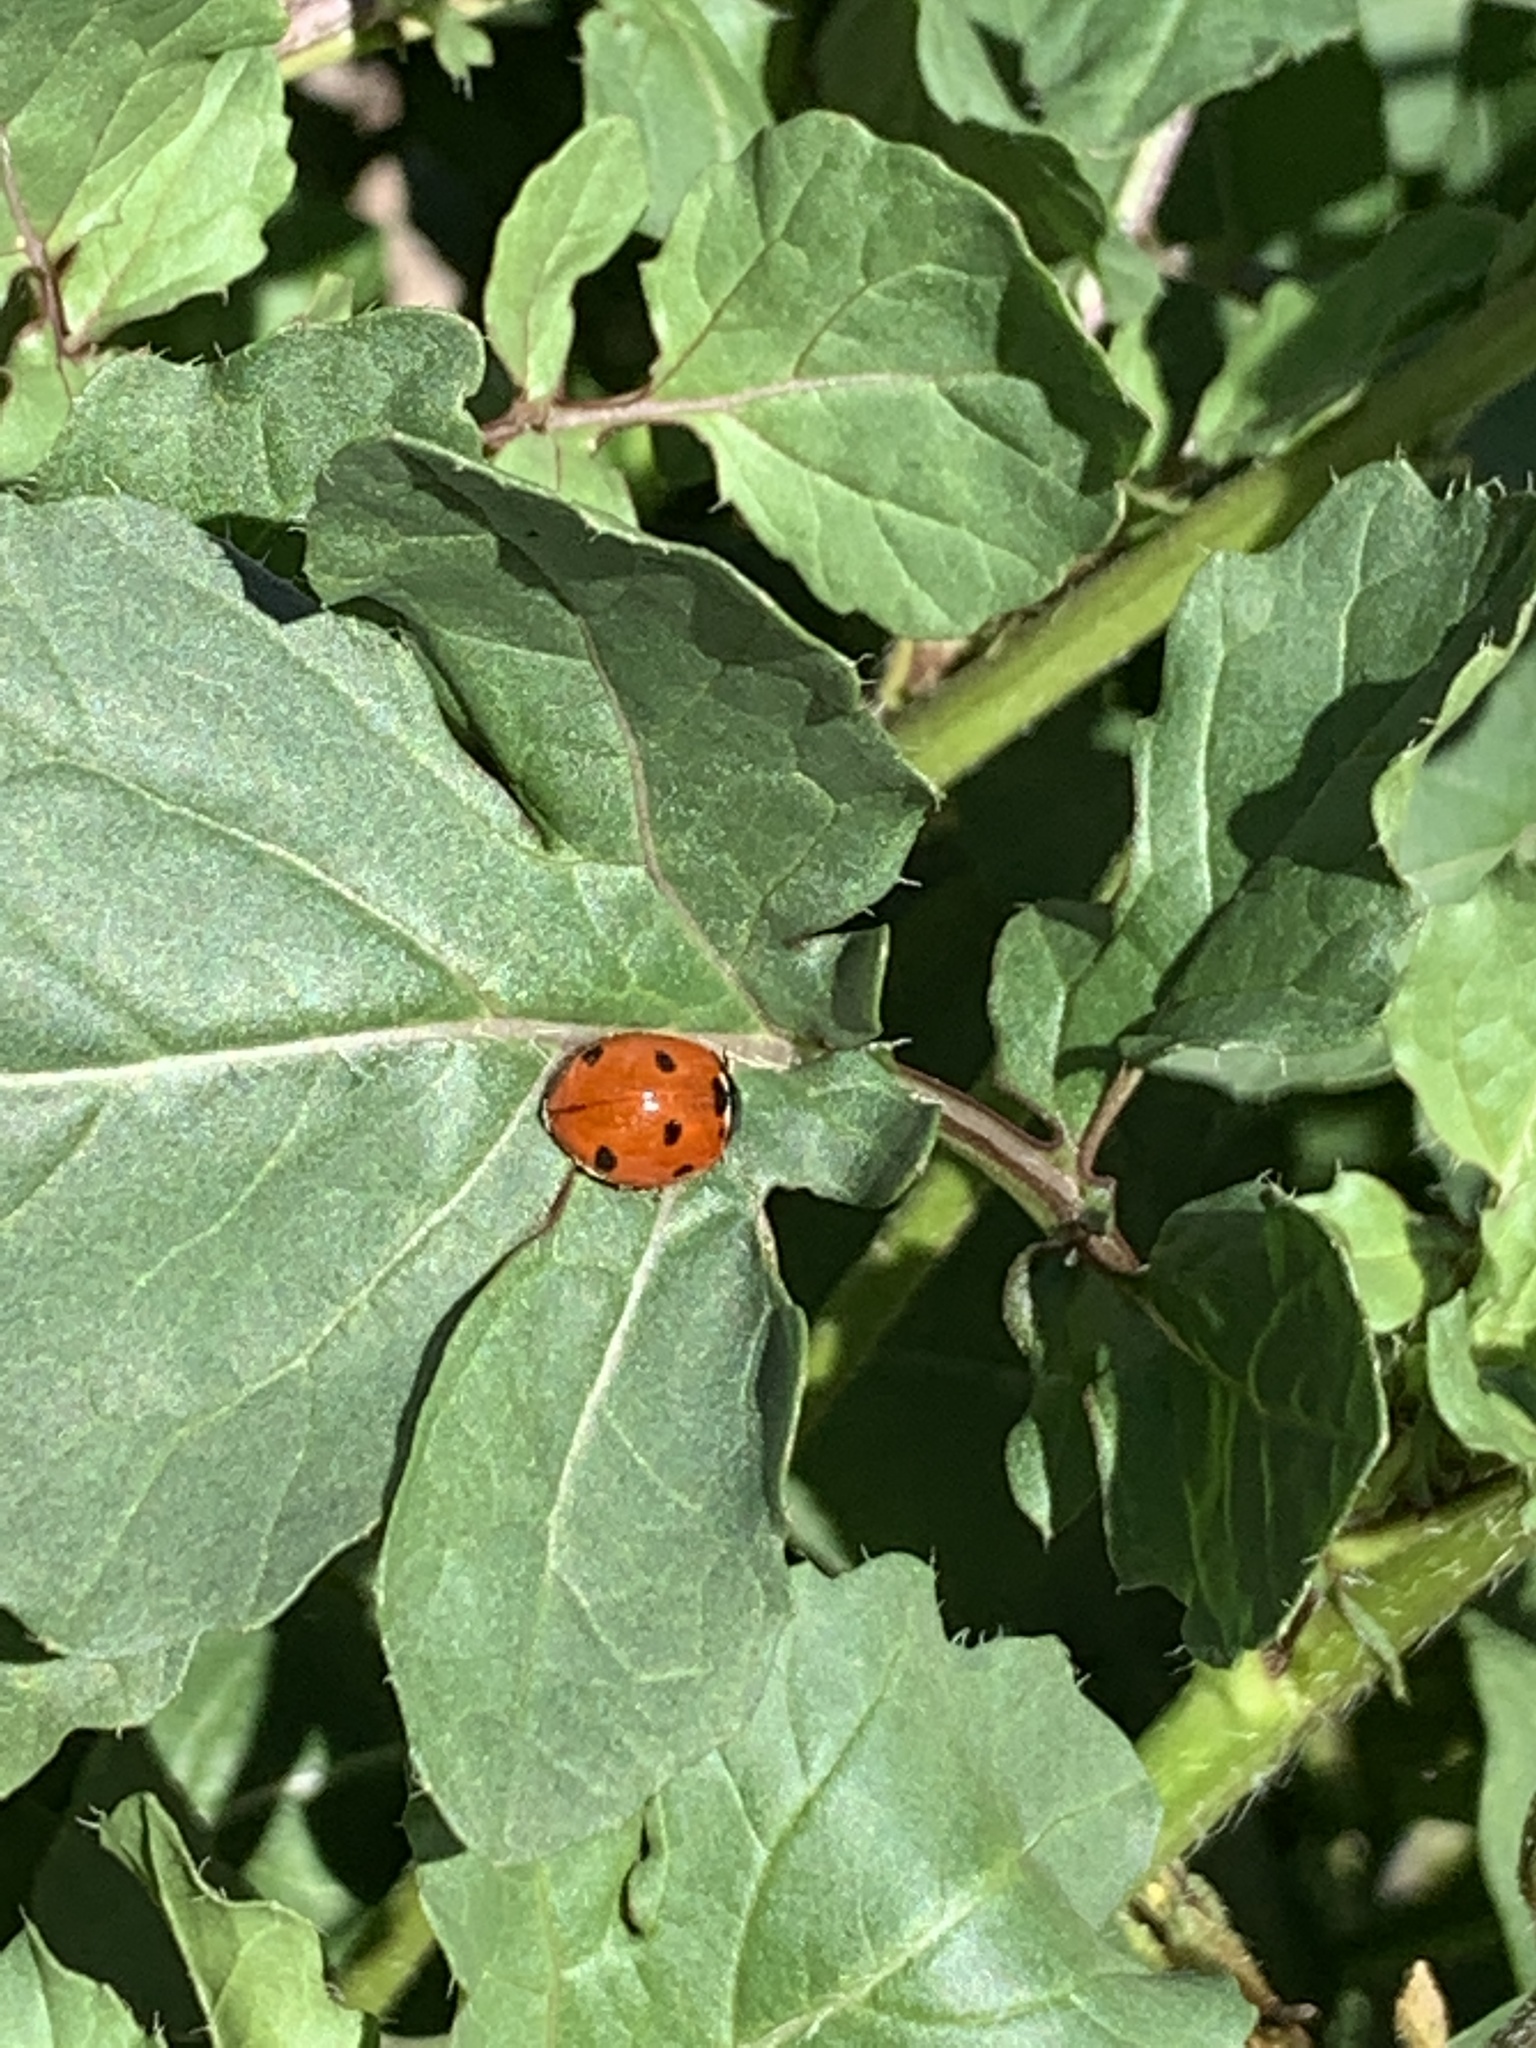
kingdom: Animalia
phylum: Arthropoda
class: Insecta
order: Coleoptera
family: Coccinellidae
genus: Coccinella
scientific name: Coccinella septempunctata
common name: Sevenspotted lady beetle
